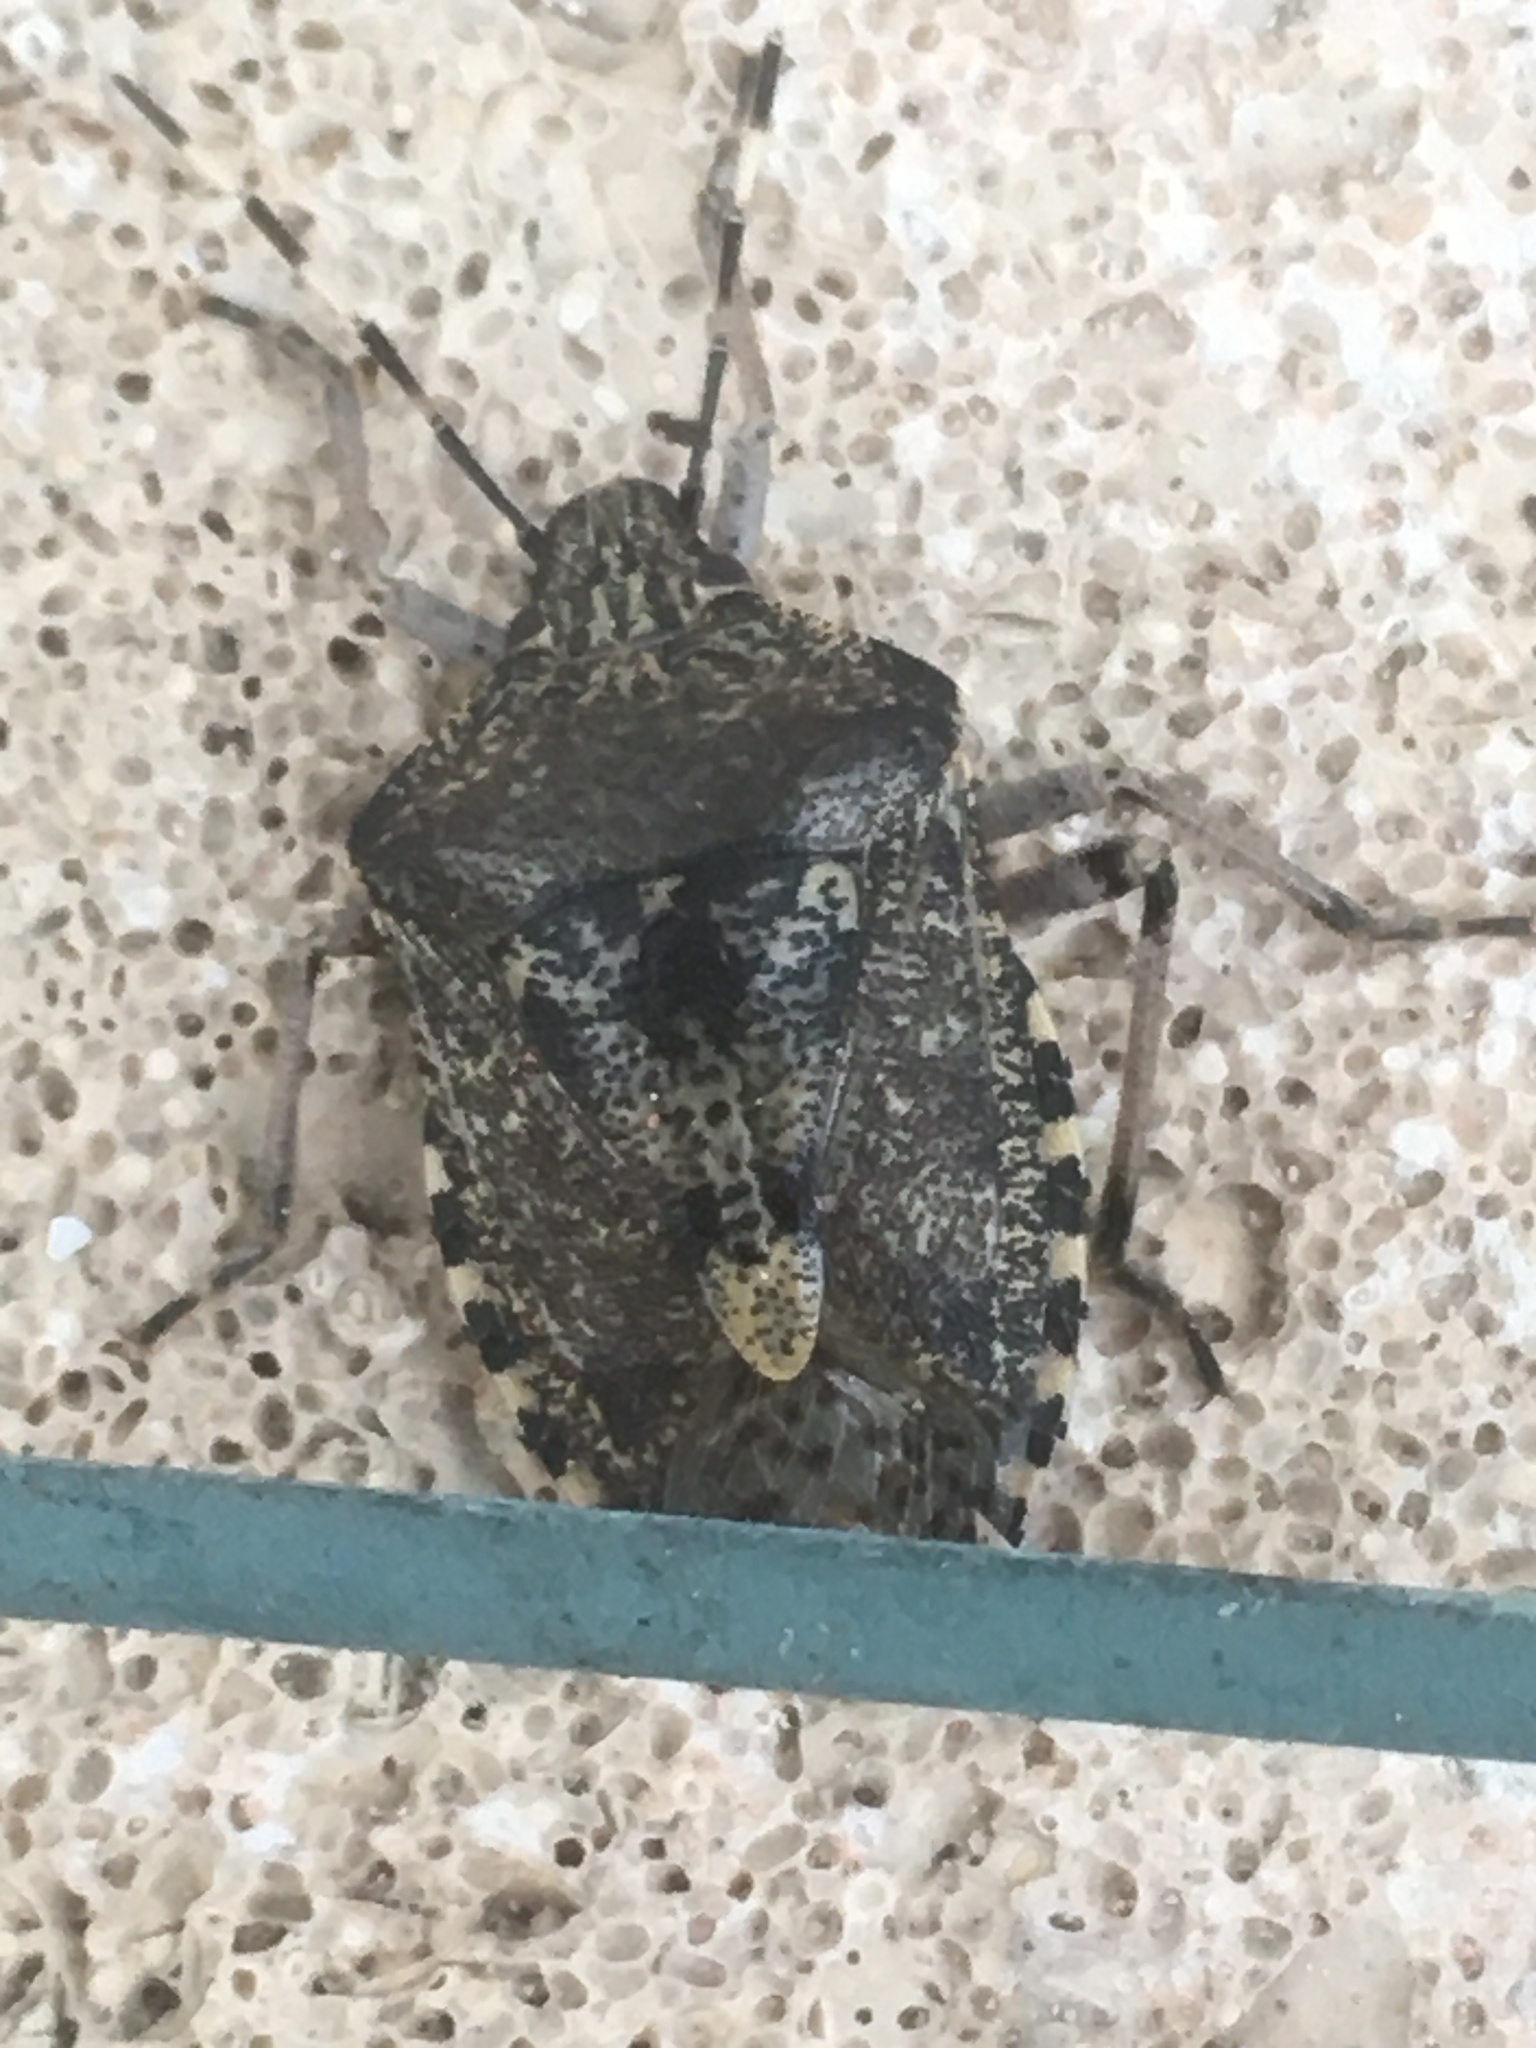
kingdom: Animalia
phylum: Arthropoda
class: Insecta
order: Hemiptera
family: Pentatomidae
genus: Rhaphigaster
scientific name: Rhaphigaster nebulosa
